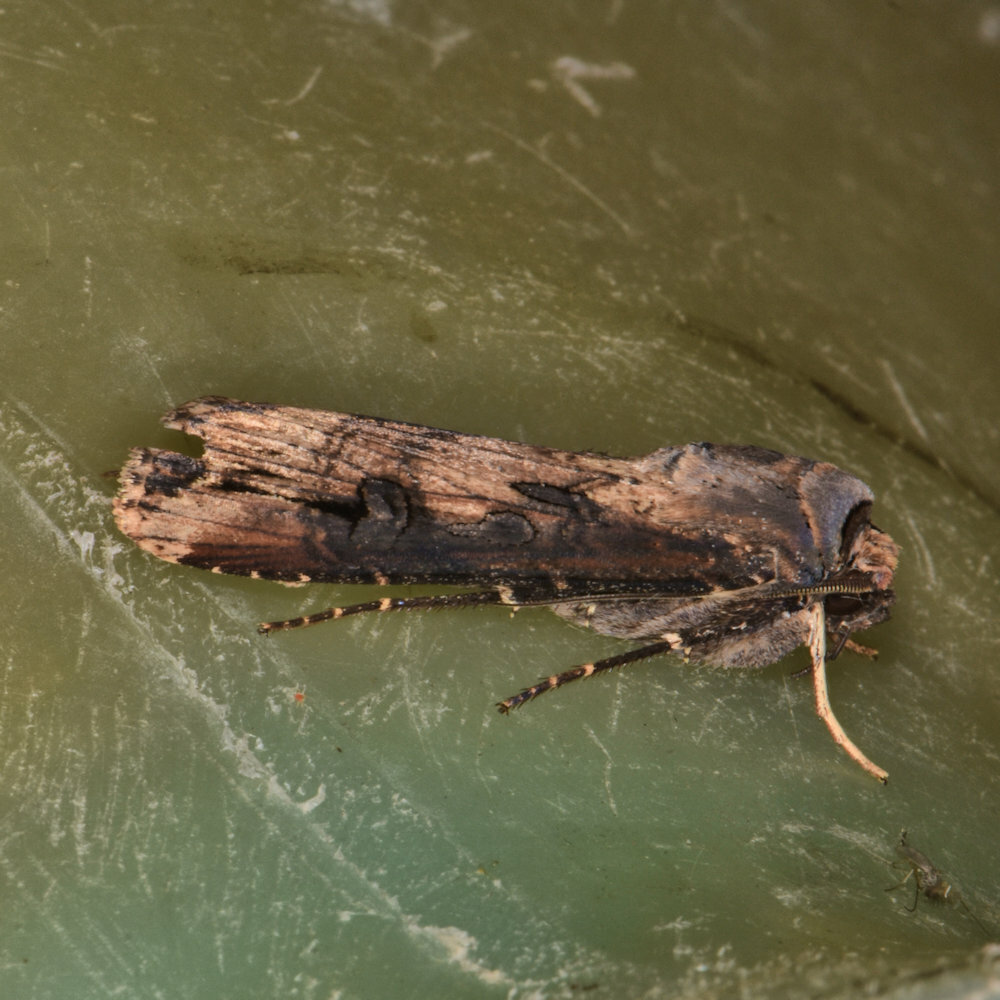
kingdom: Animalia
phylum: Arthropoda
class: Insecta
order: Lepidoptera
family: Noctuidae
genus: Agrotis
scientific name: Agrotis ipsilon
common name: Dark sword-grass
